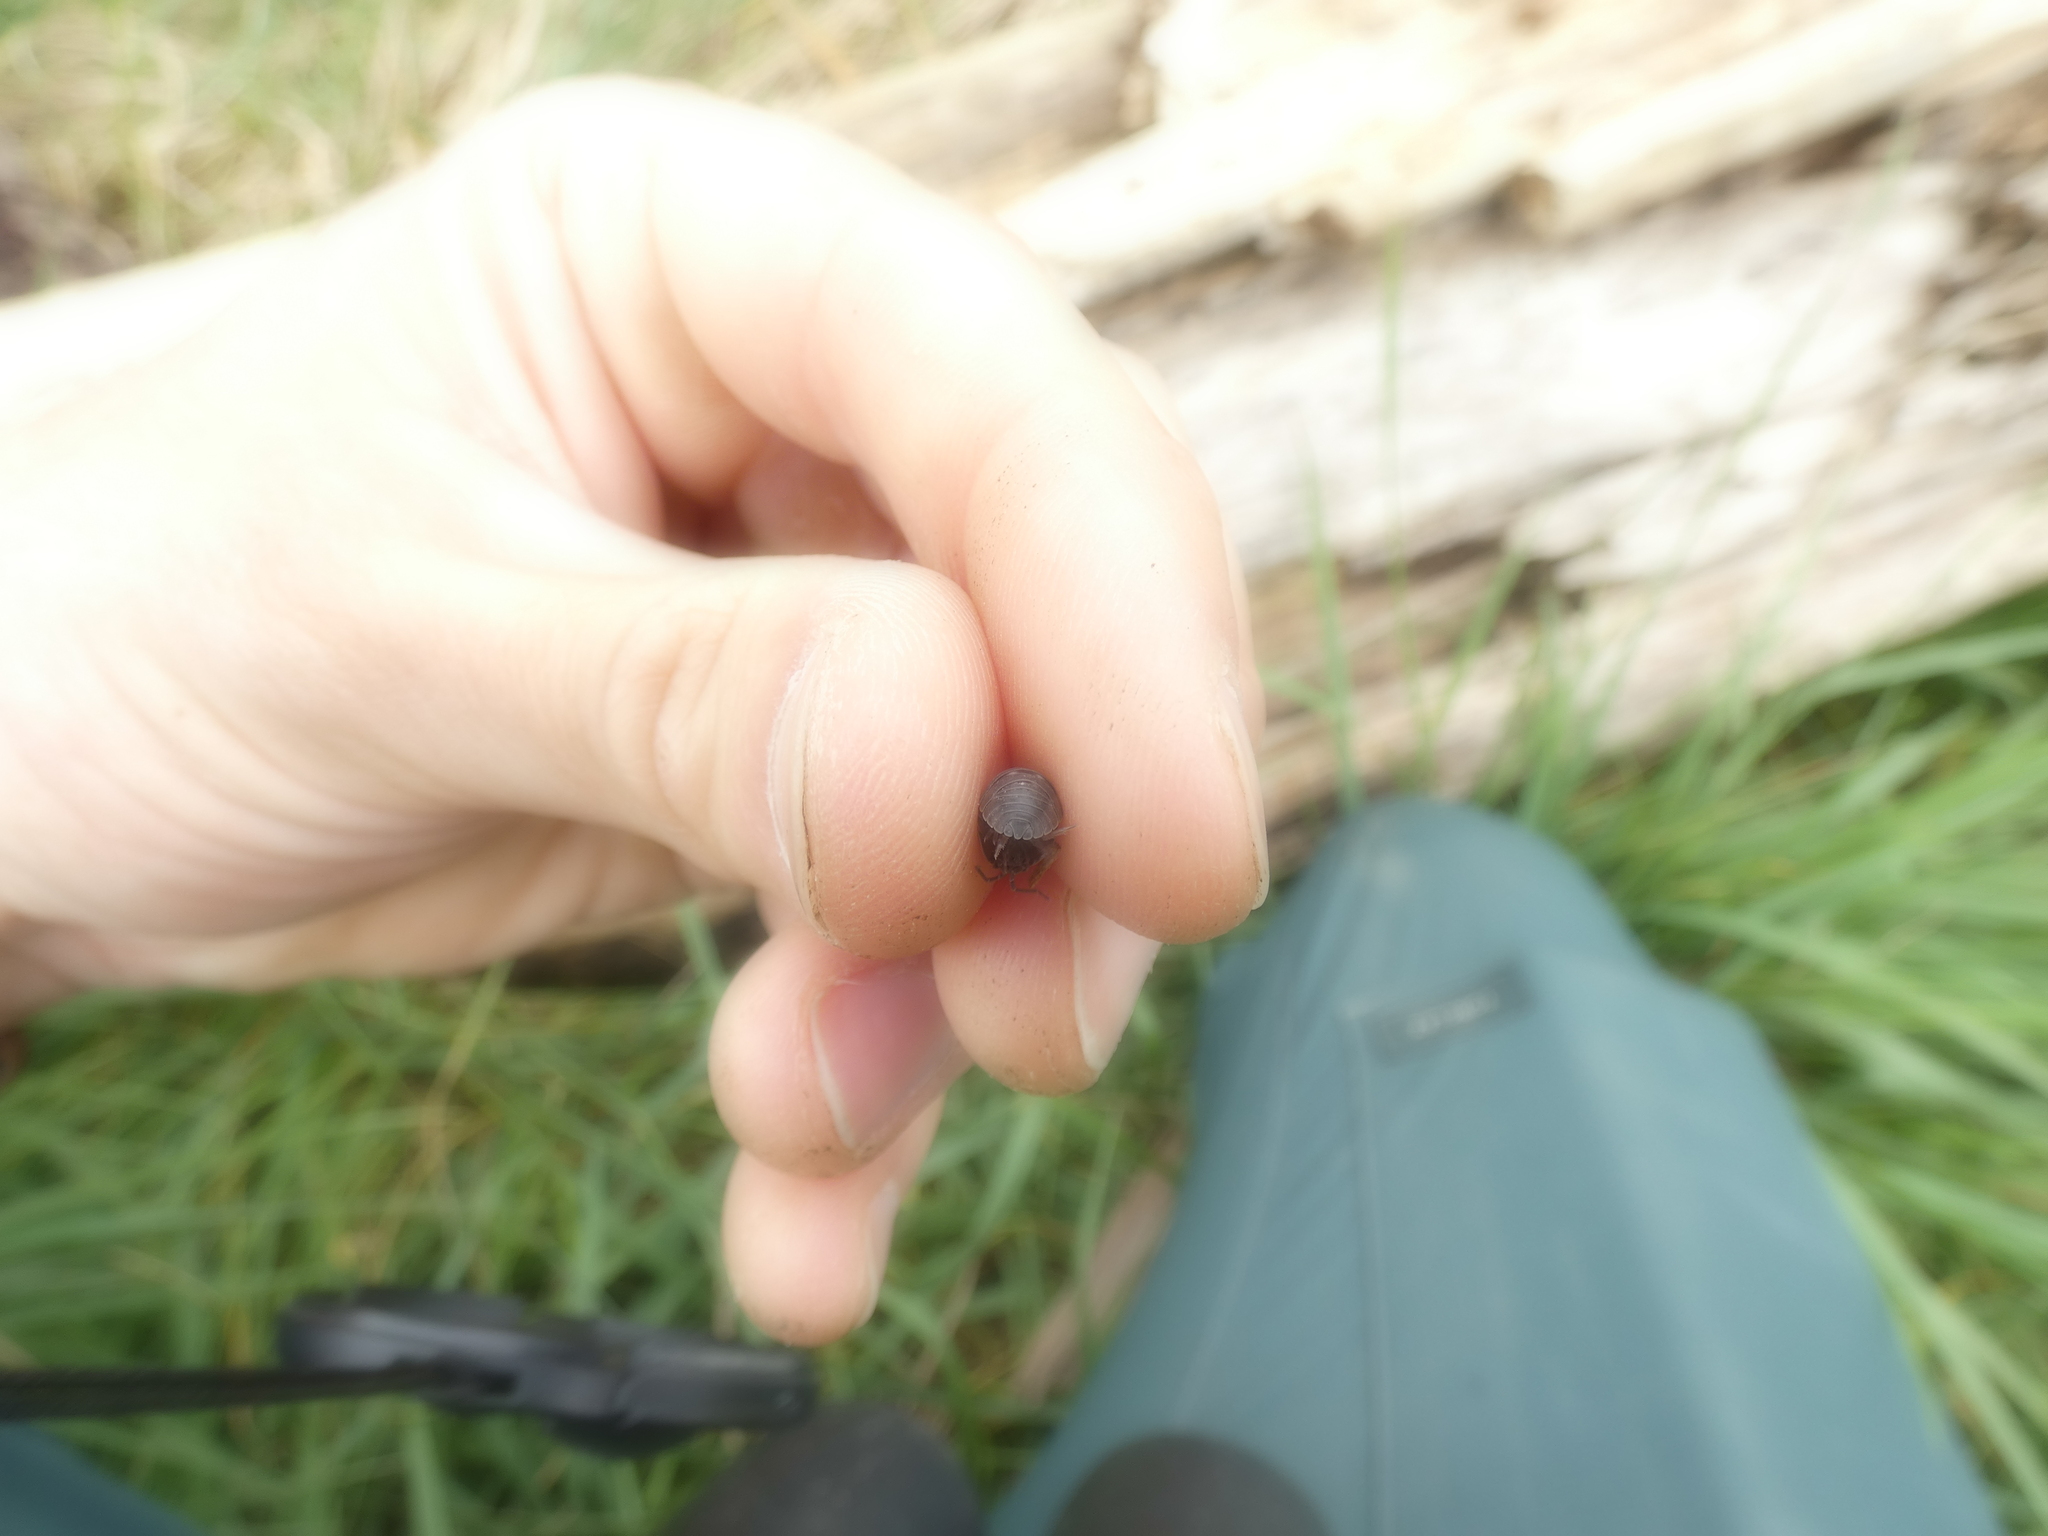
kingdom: Animalia
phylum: Arthropoda
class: Malacostraca
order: Isopoda
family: Armadillidiidae
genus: Armadillidium
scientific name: Armadillidium nasatum
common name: Isopod
